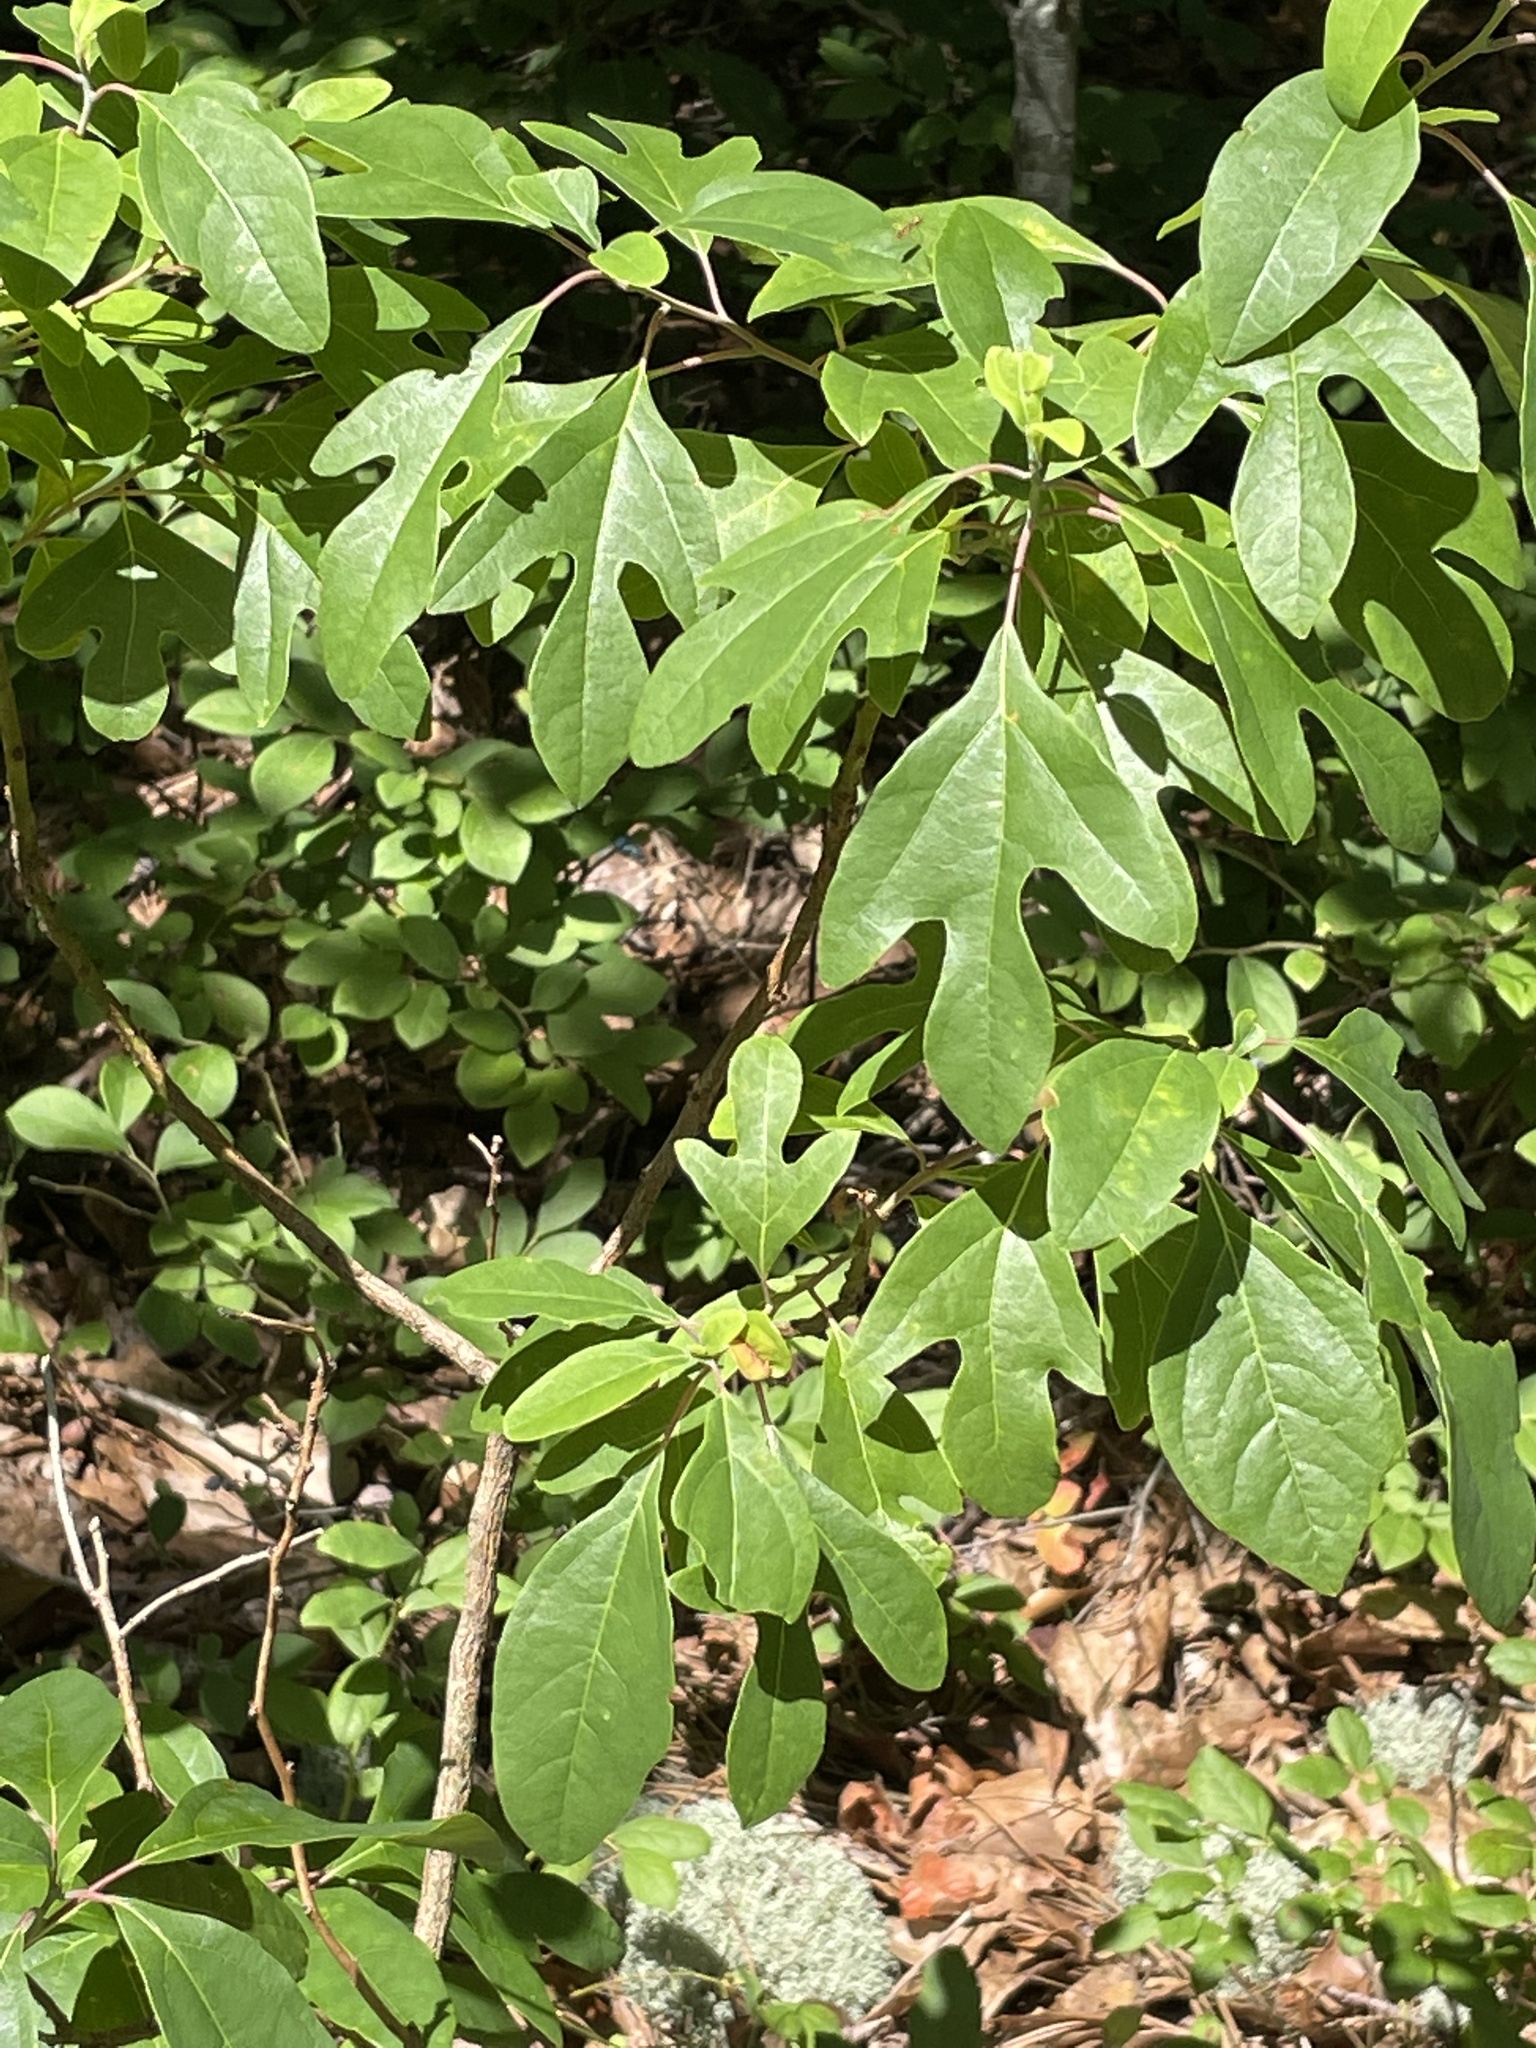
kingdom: Plantae
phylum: Tracheophyta
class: Magnoliopsida
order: Laurales
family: Lauraceae
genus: Sassafras
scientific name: Sassafras albidum
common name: Sassafras
